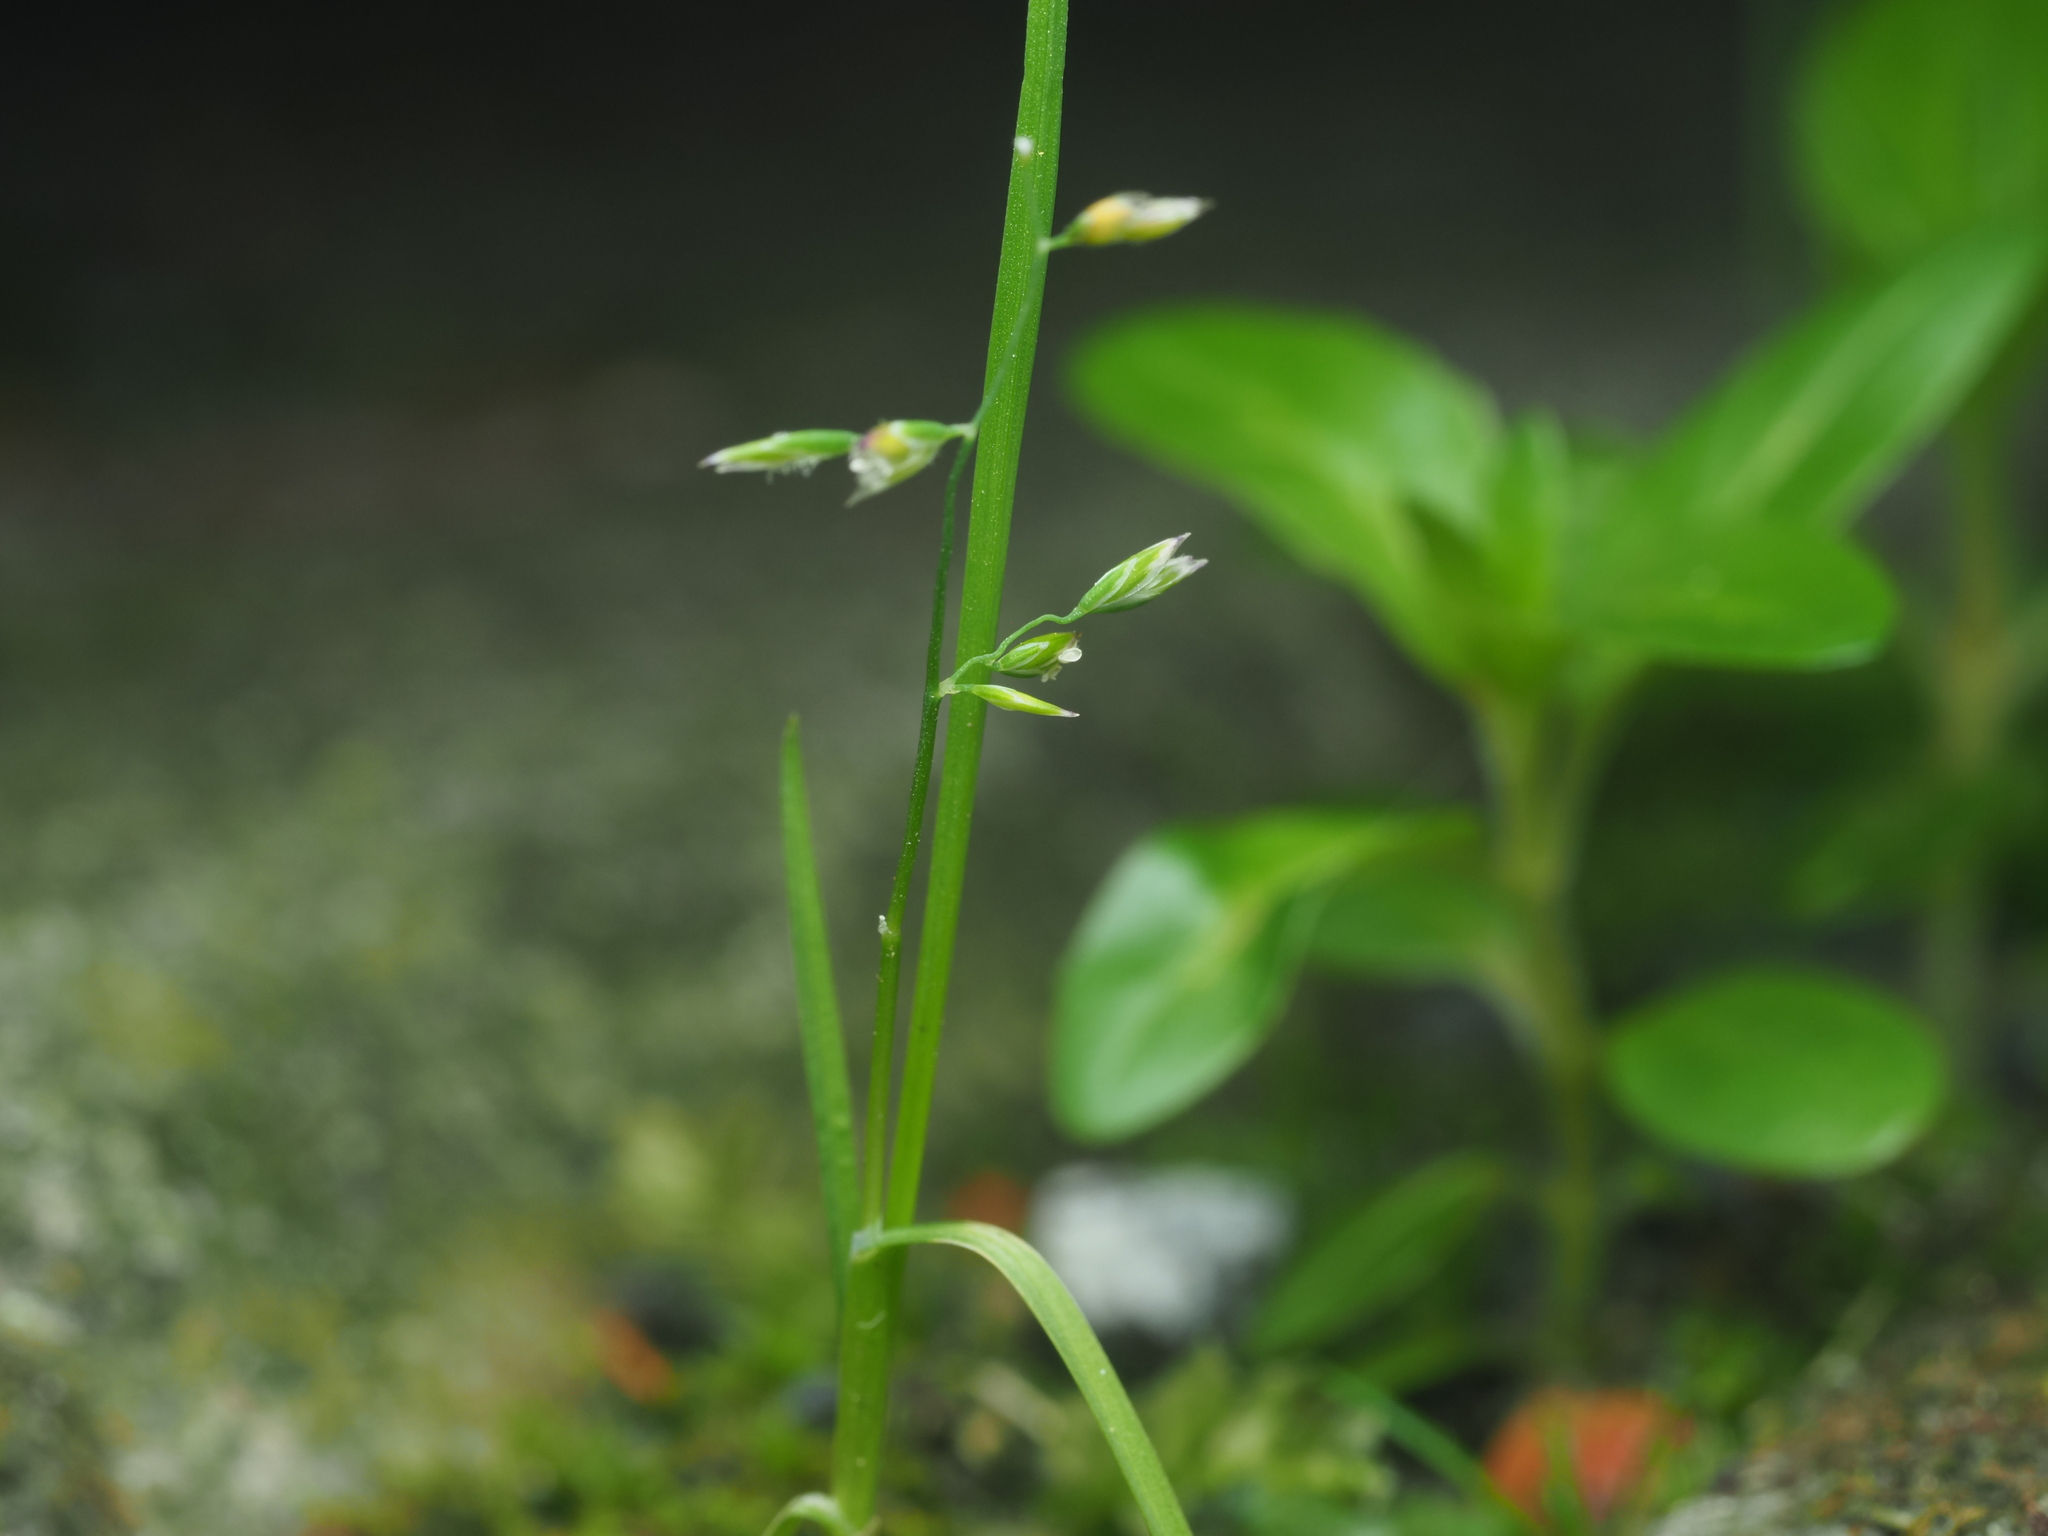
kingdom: Plantae
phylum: Tracheophyta
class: Liliopsida
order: Poales
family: Poaceae
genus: Poa
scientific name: Poa annua
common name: Annual bluegrass
